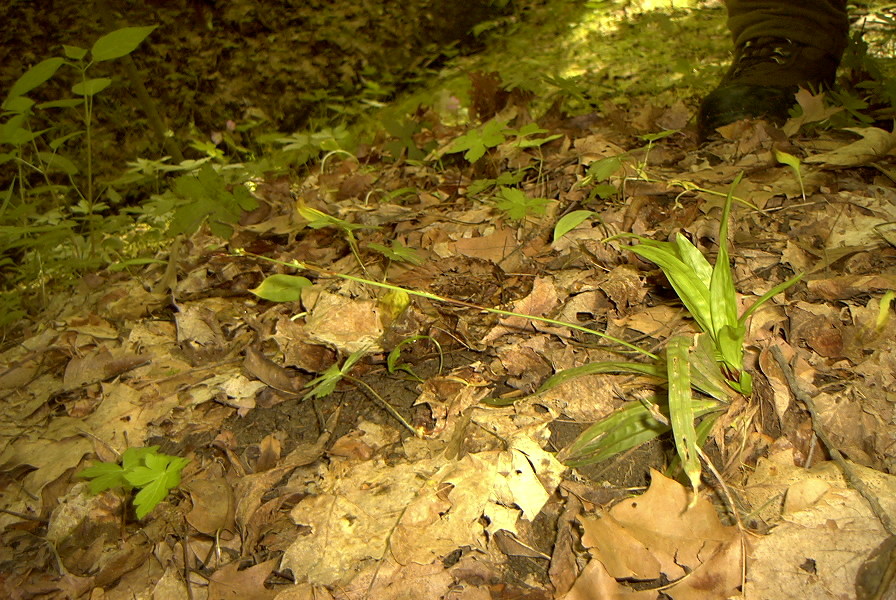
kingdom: Plantae
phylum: Tracheophyta
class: Liliopsida
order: Poales
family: Cyperaceae
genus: Carex
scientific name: Carex plantaginea
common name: Plantain-leaved sedge
